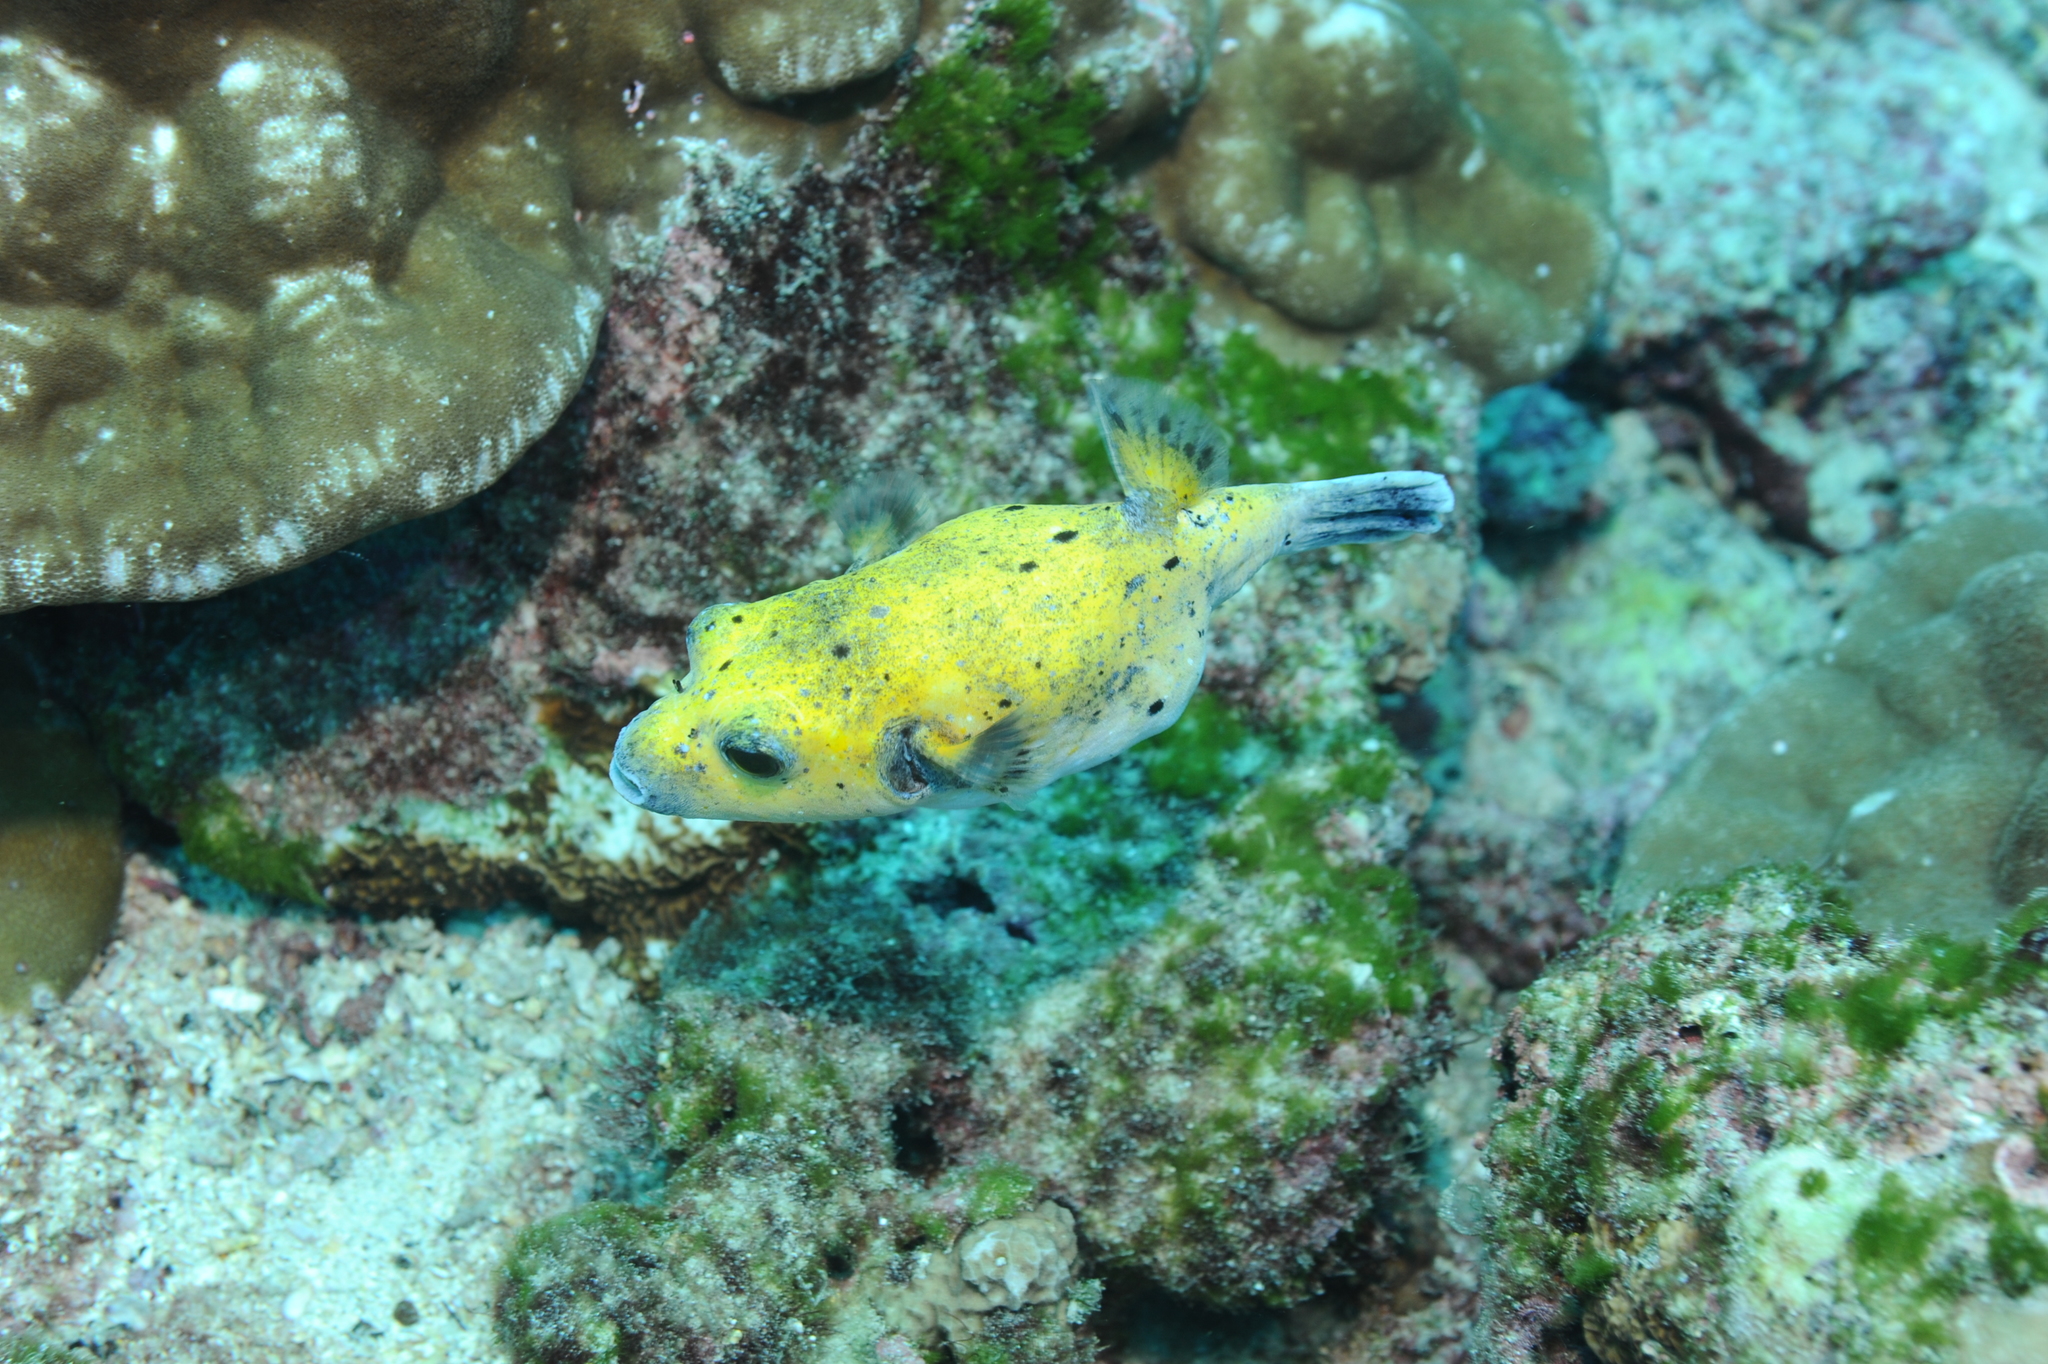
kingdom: Animalia
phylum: Chordata
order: Tetraodontiformes
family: Tetraodontidae
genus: Arothron
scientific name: Arothron meleagris
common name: Guinea-fowl pufferfish
